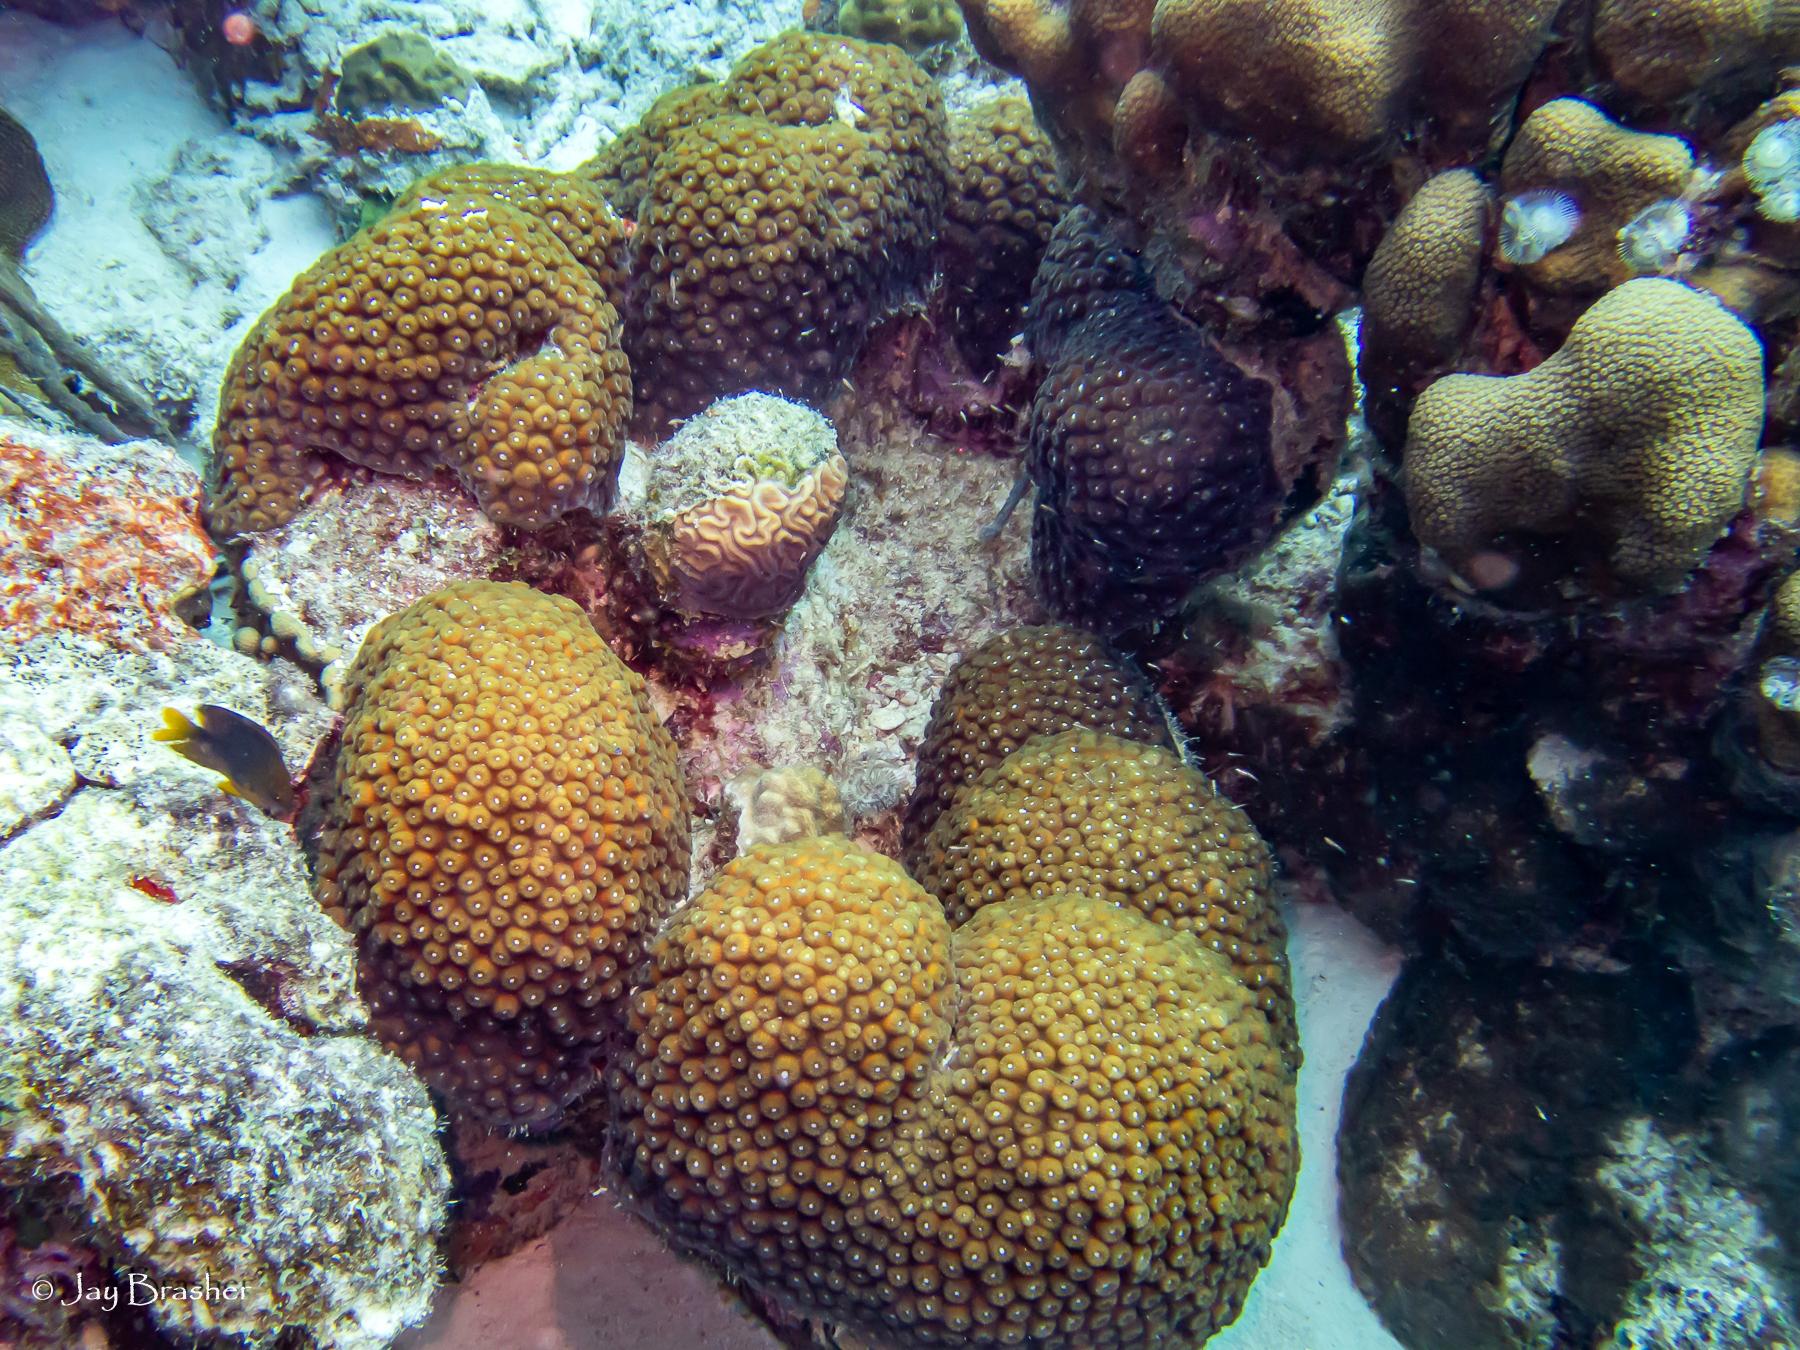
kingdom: Animalia
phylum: Cnidaria
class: Anthozoa
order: Scleractinia
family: Merulinidae
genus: Orbicella
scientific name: Orbicella annularis
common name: Boulder star coral
